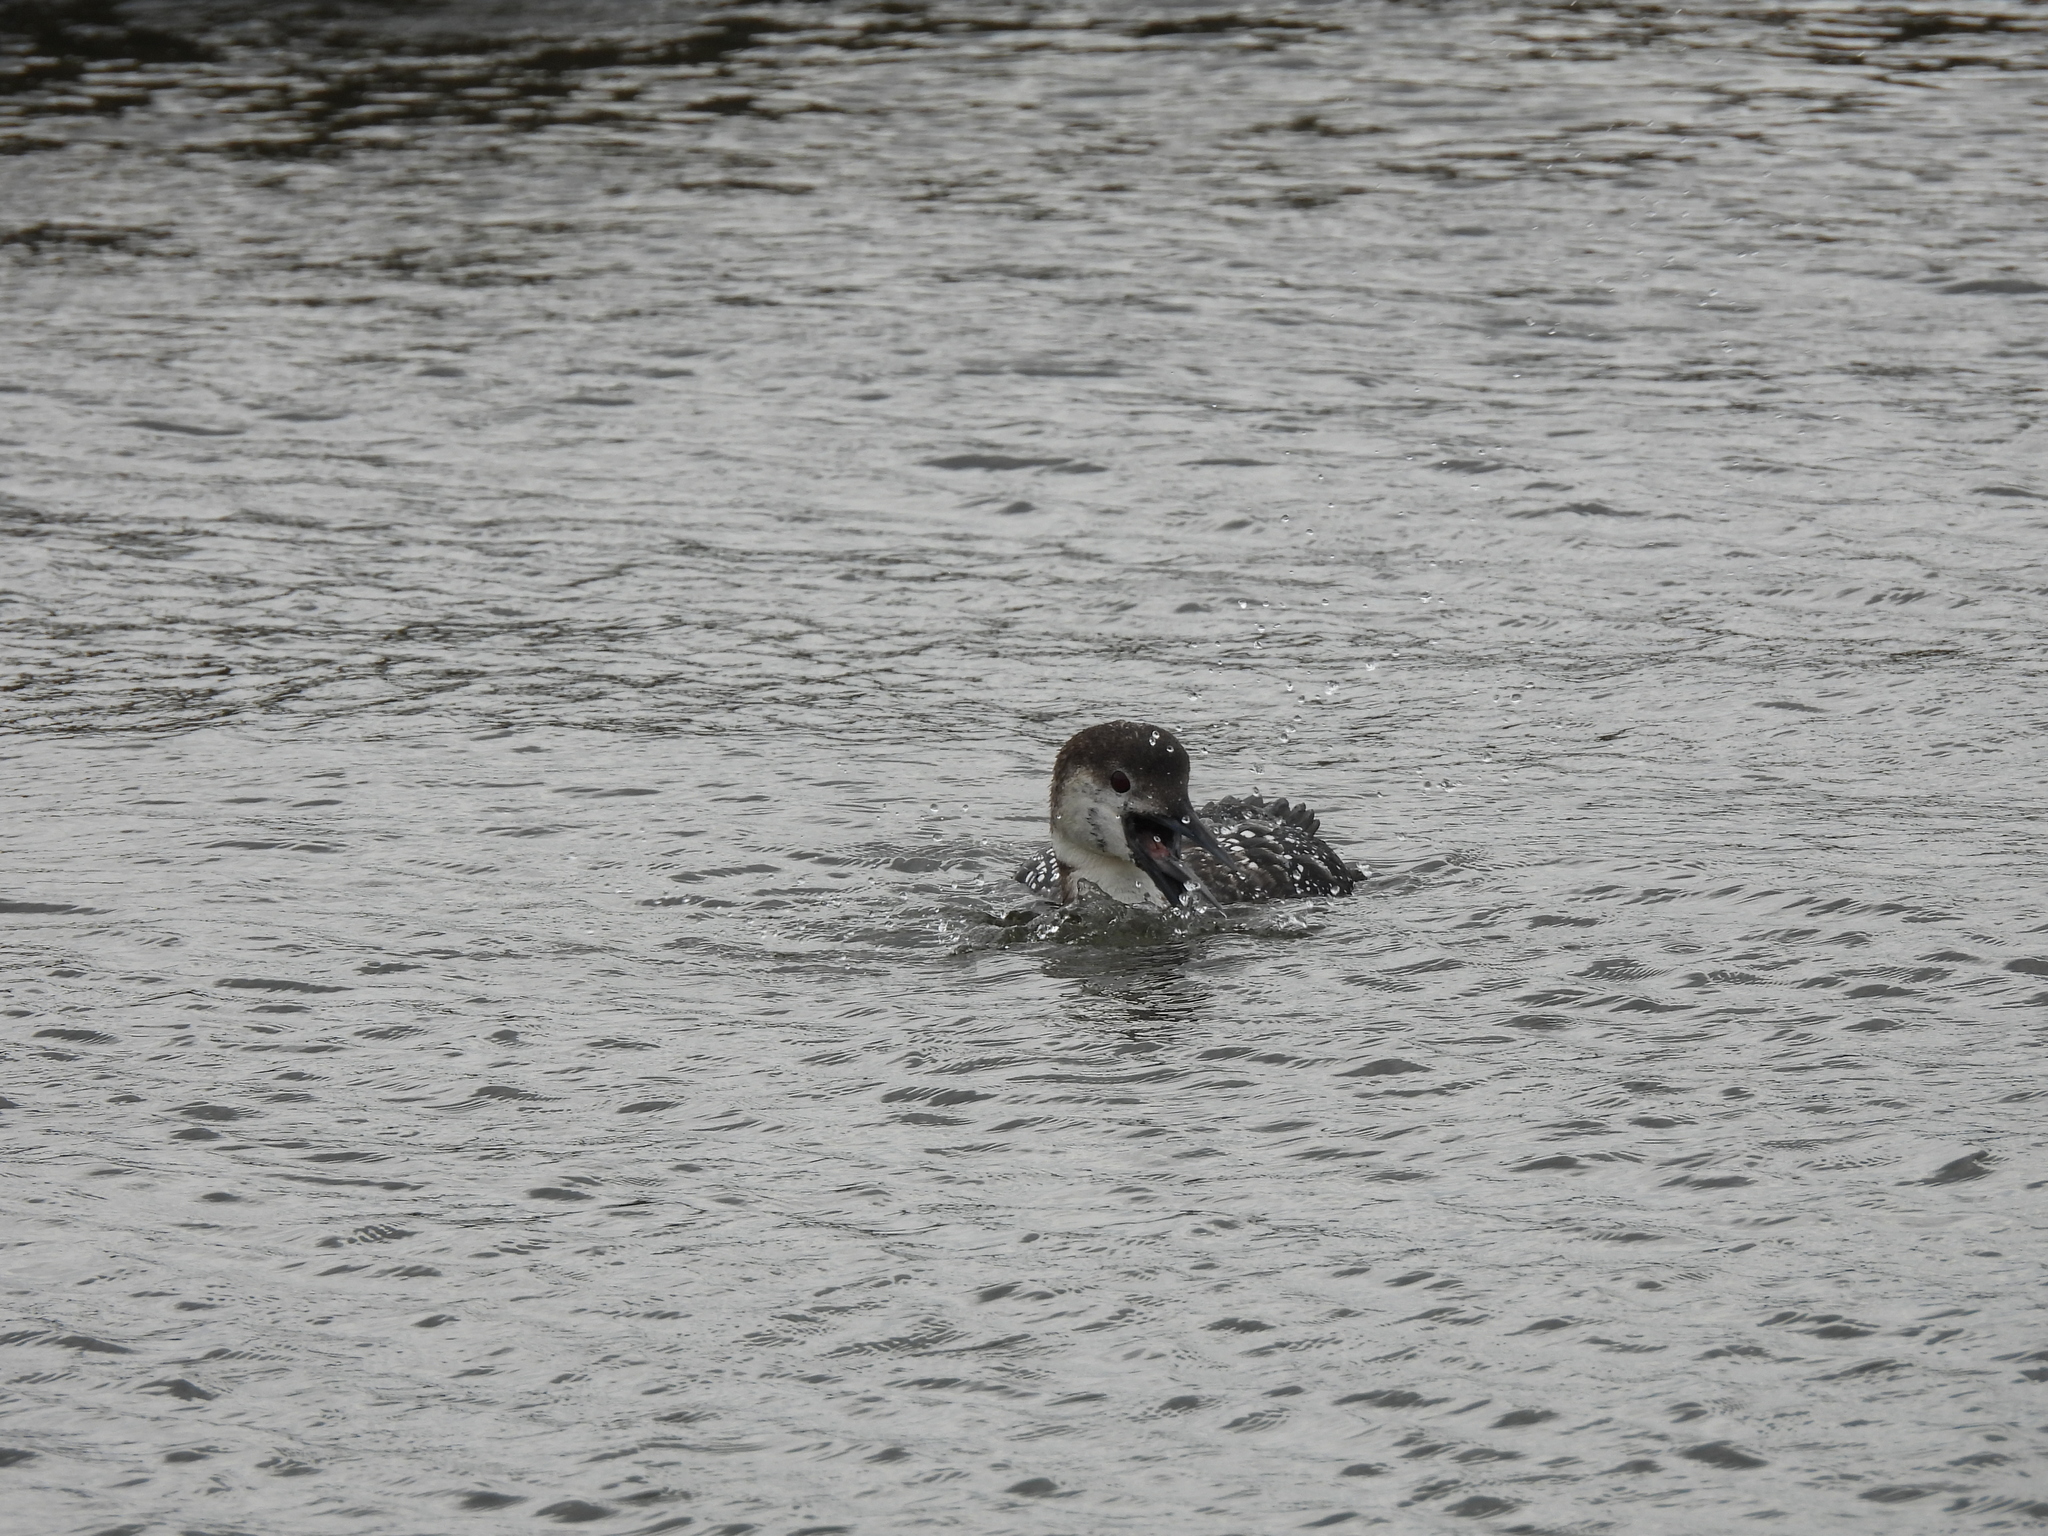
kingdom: Animalia
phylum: Chordata
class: Aves
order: Gaviiformes
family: Gaviidae
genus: Gavia
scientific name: Gavia immer
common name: Common loon
